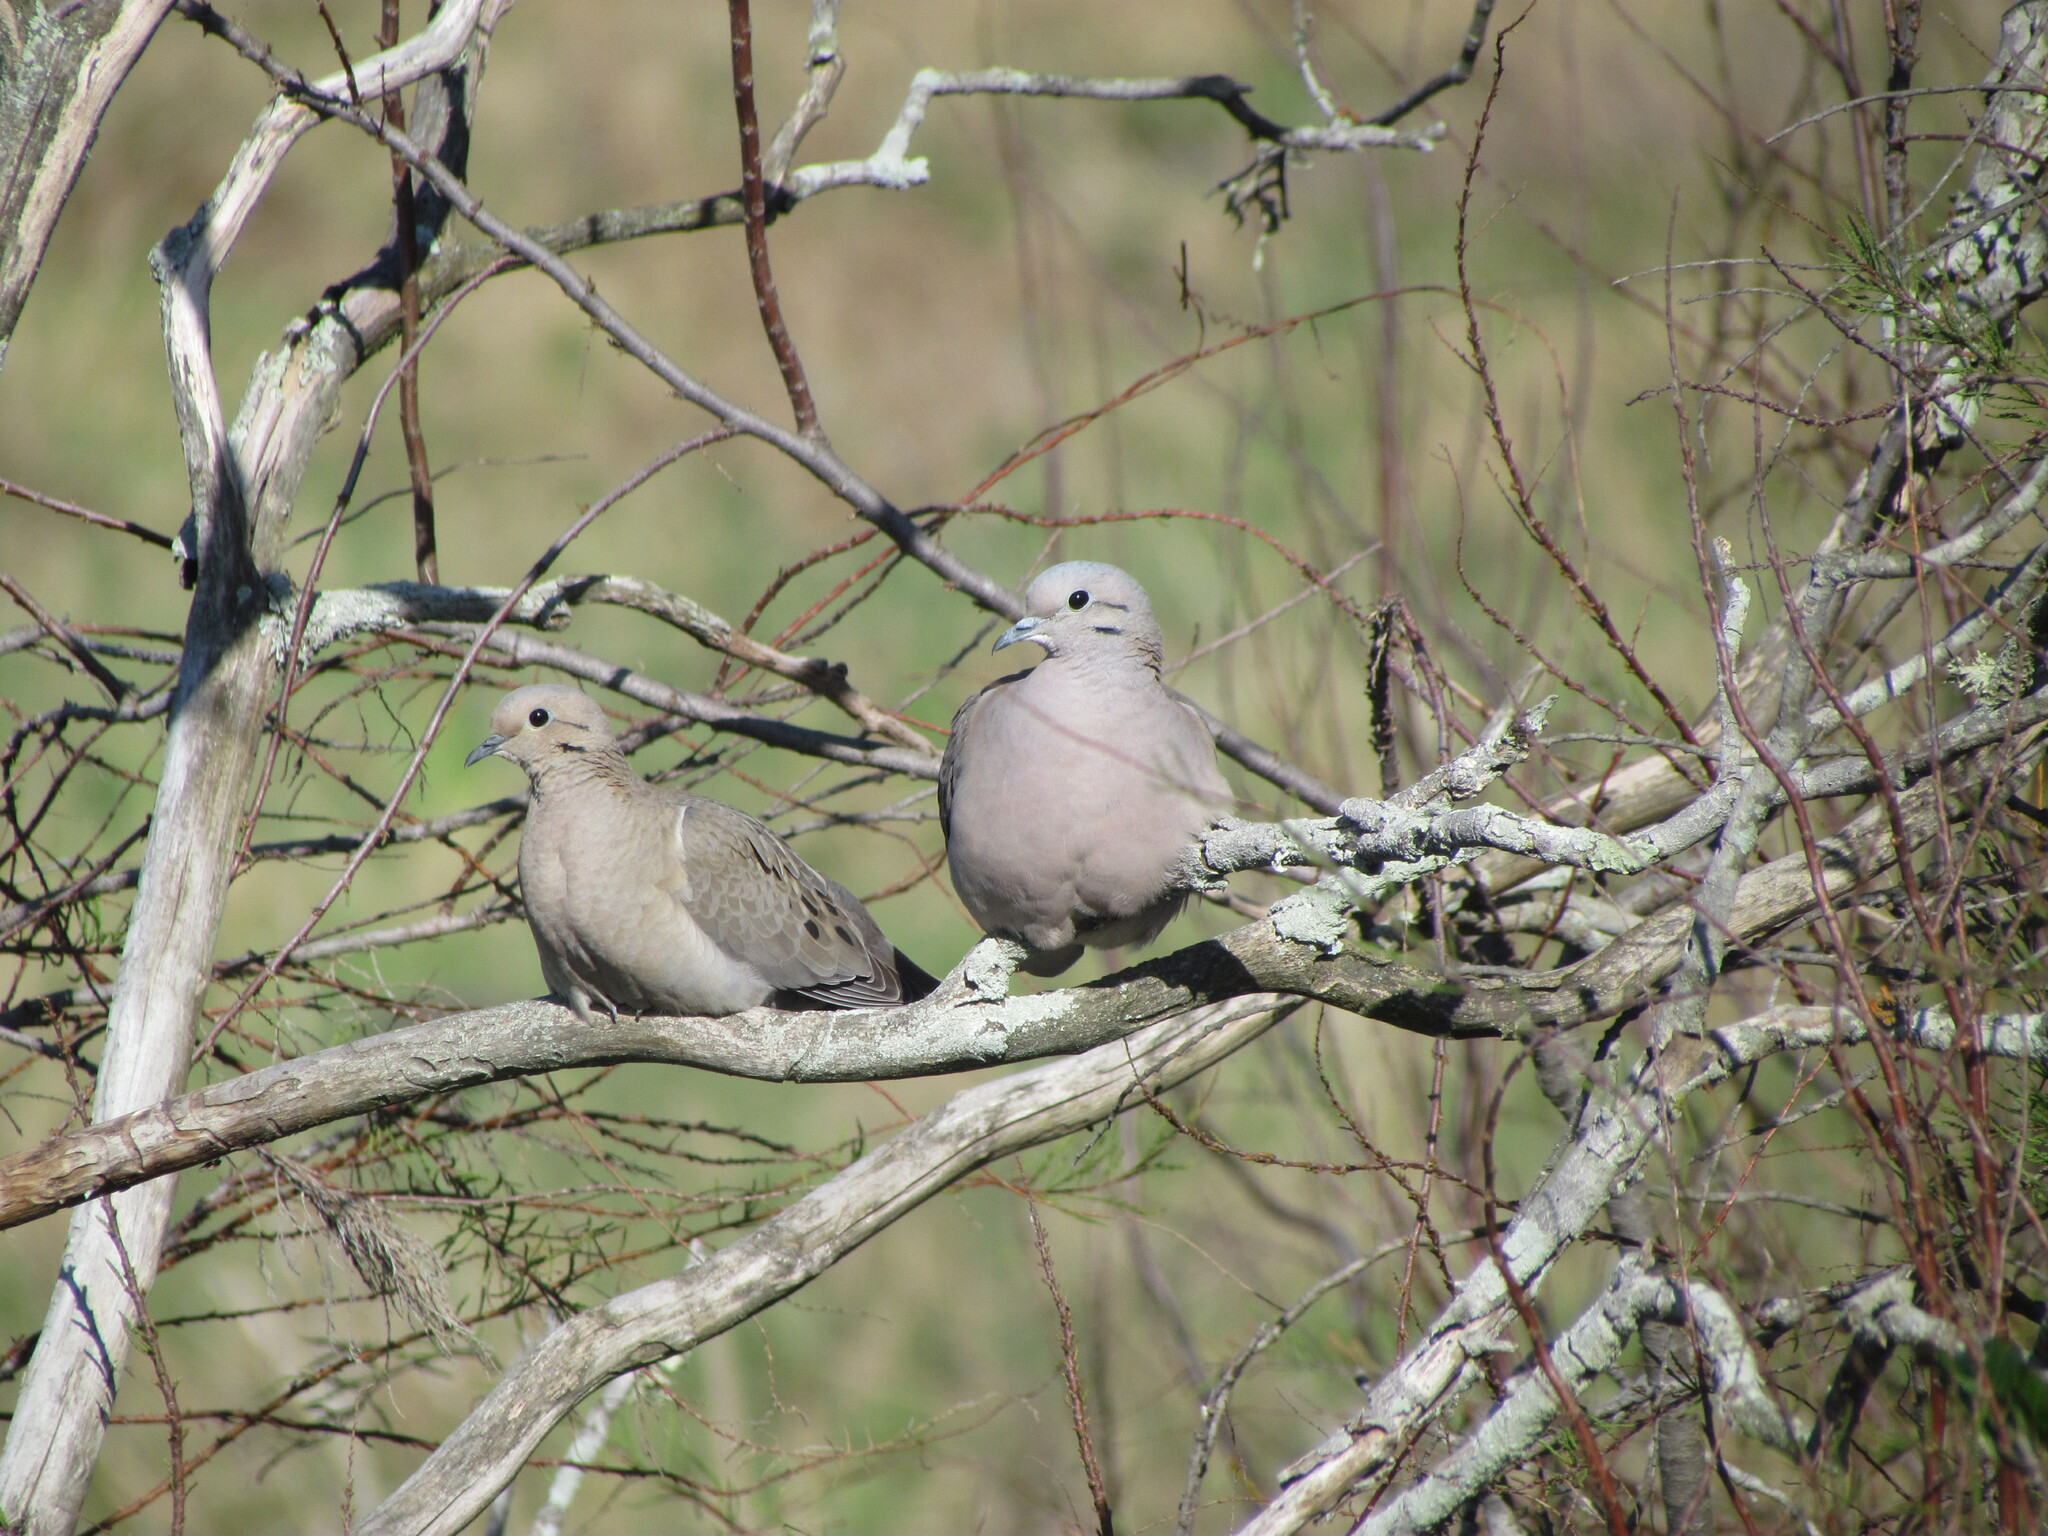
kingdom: Animalia
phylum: Chordata
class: Aves
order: Columbiformes
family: Columbidae
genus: Zenaida
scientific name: Zenaida auriculata
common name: Eared dove
